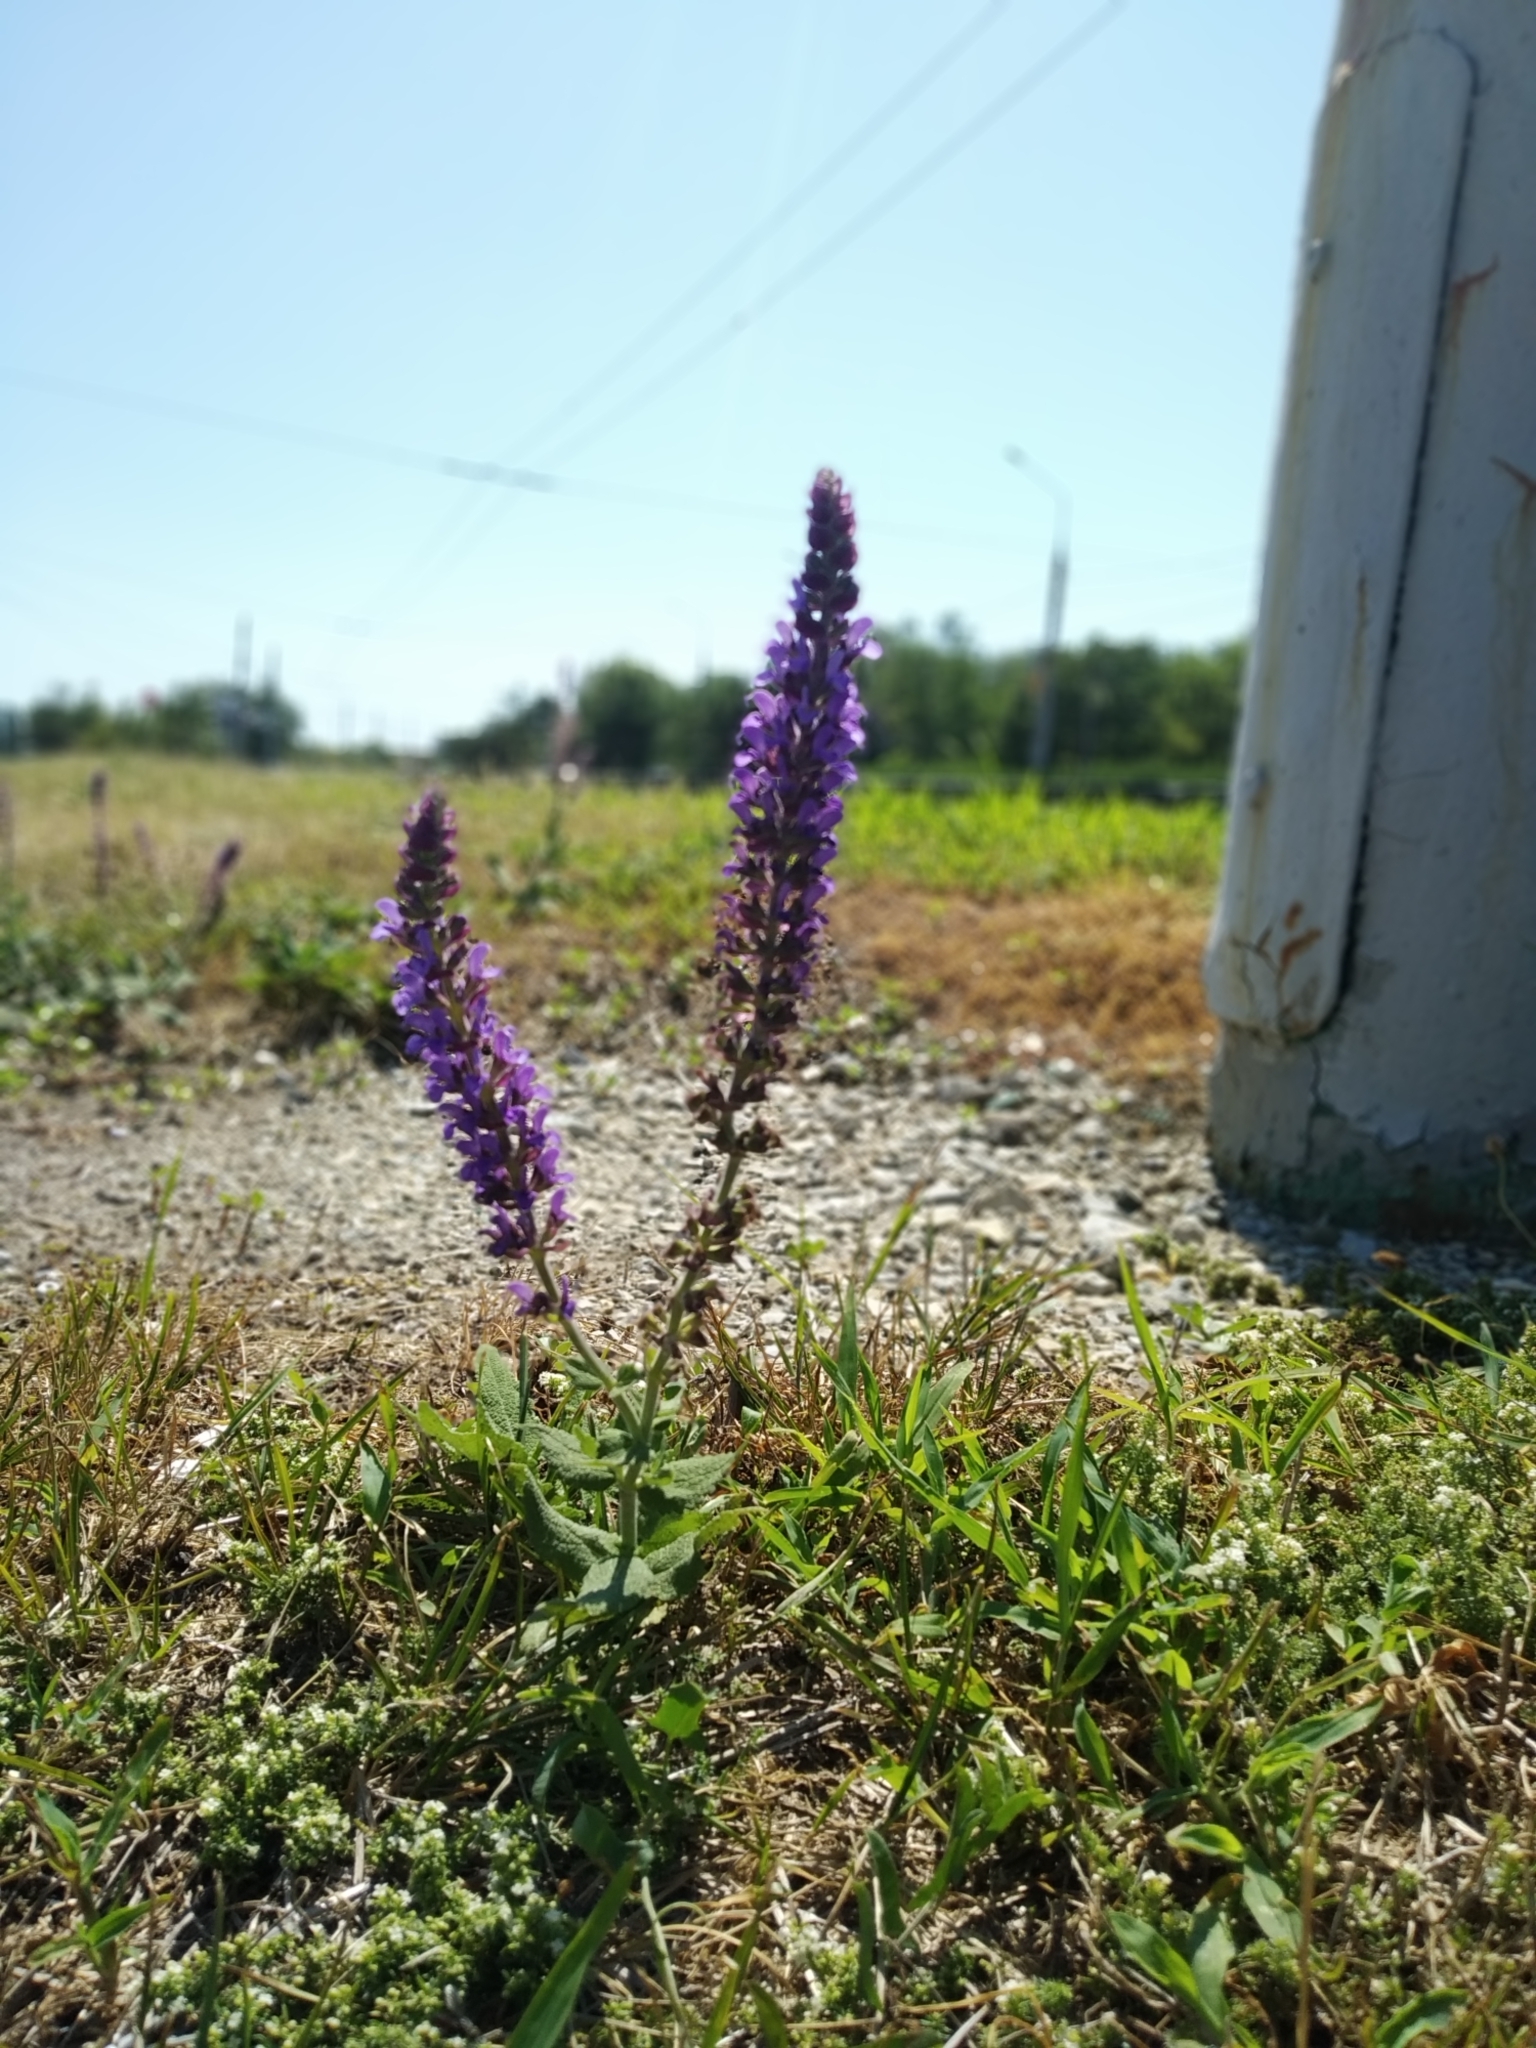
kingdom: Plantae
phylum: Tracheophyta
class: Magnoliopsida
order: Lamiales
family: Lamiaceae
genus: Salvia
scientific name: Salvia nemorosa
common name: Balkan clary
